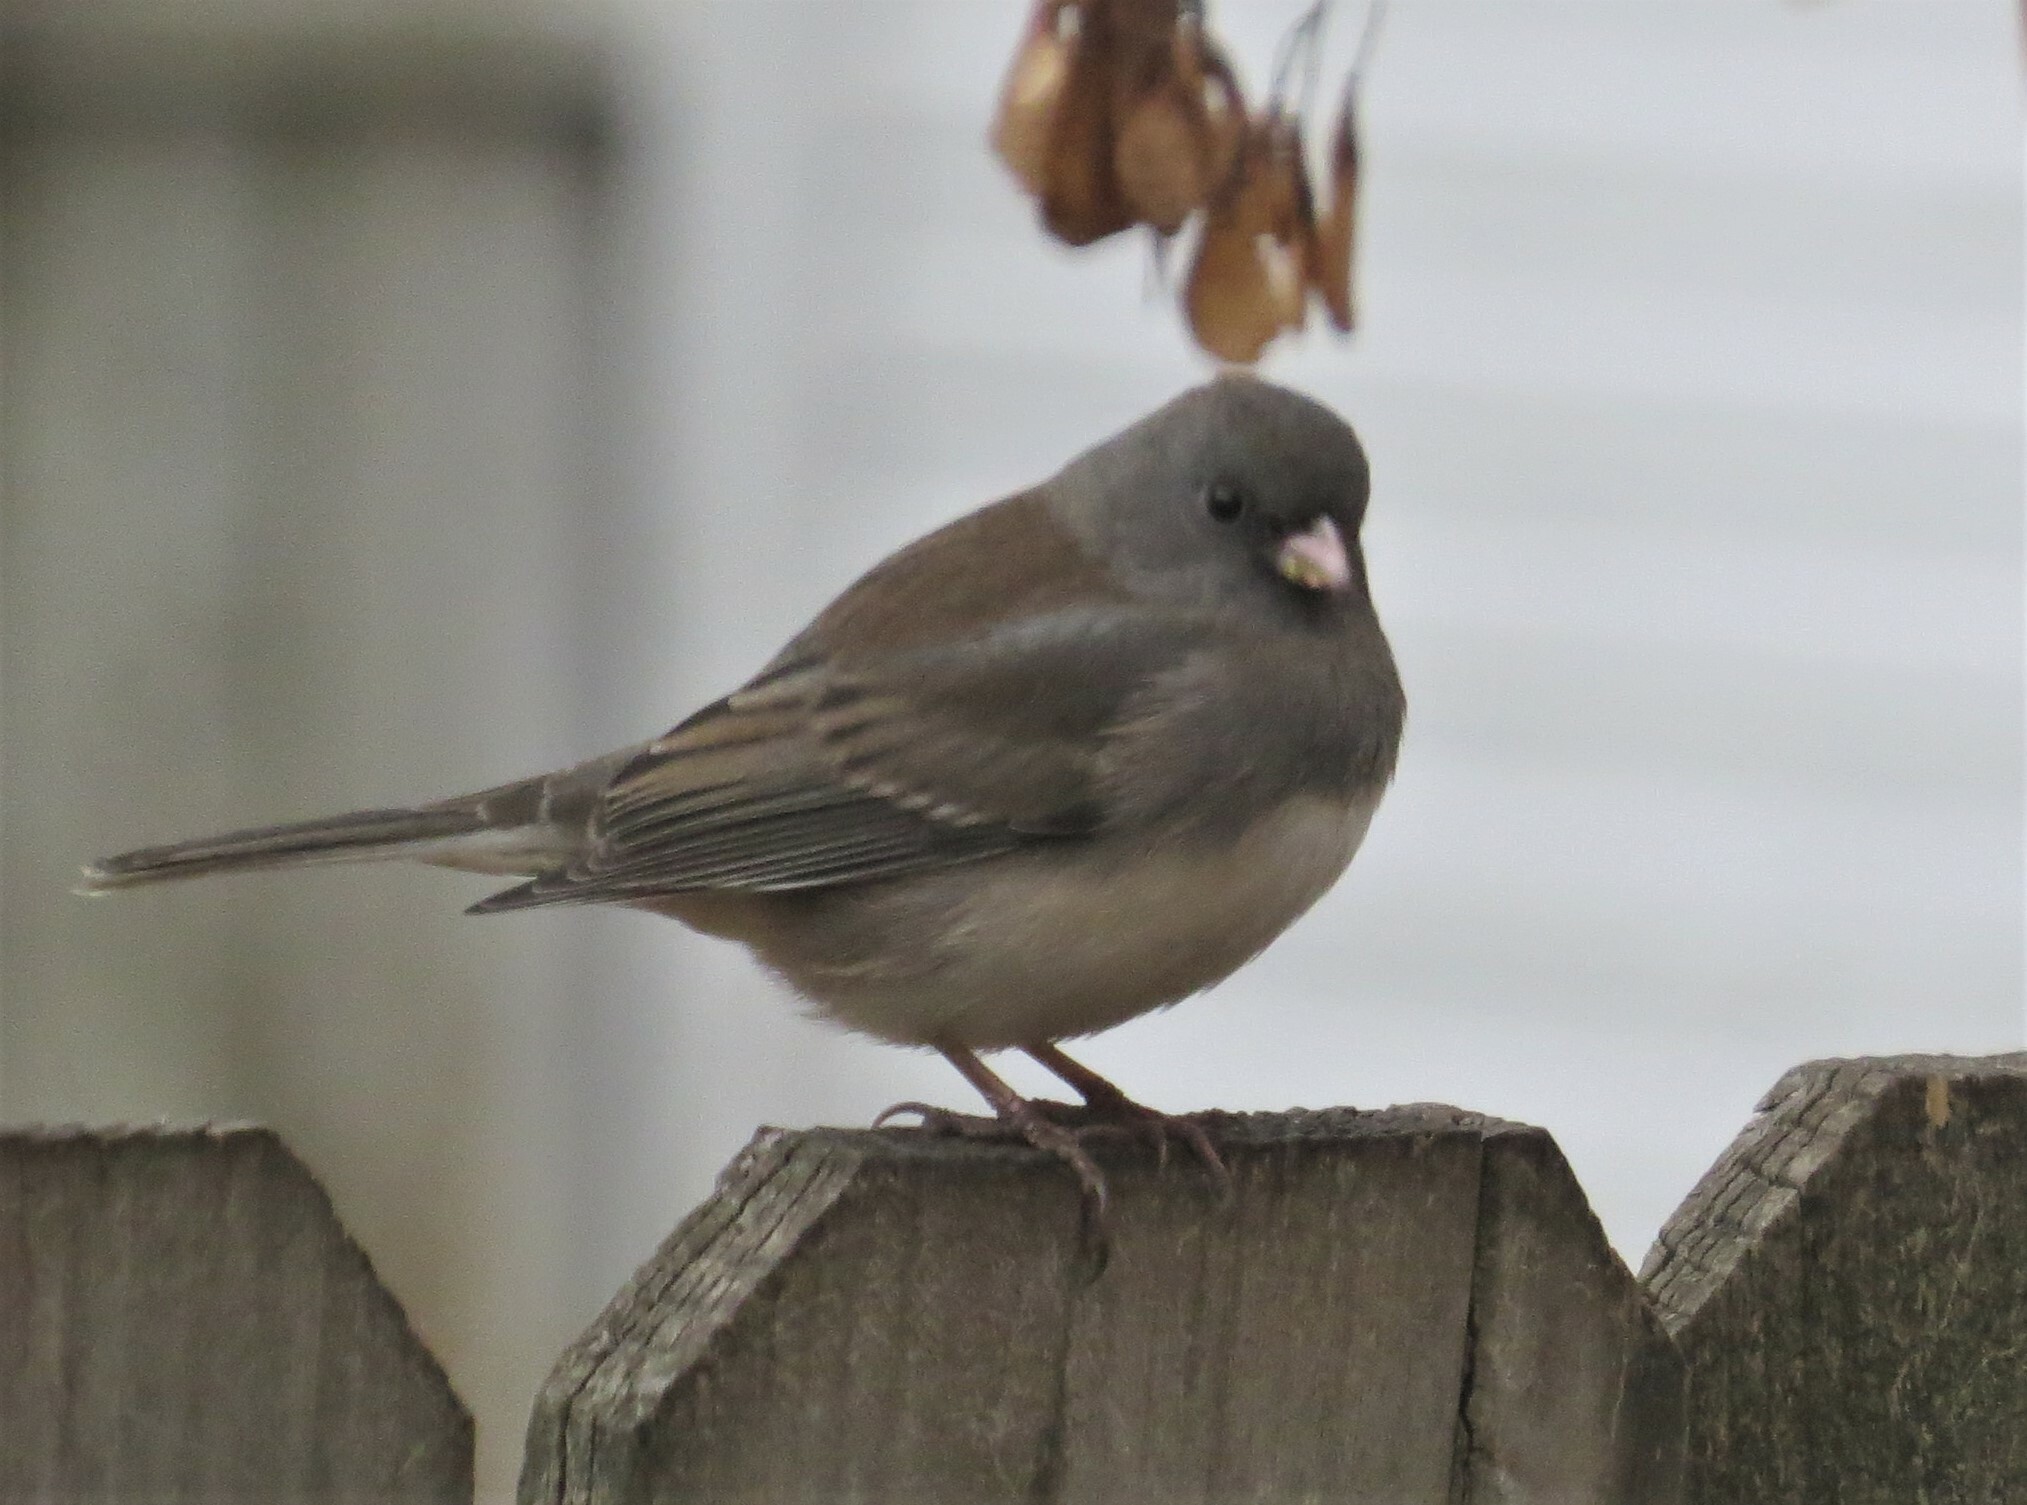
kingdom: Animalia
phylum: Chordata
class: Aves
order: Passeriformes
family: Passerellidae
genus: Junco
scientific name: Junco hyemalis
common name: Dark-eyed junco
